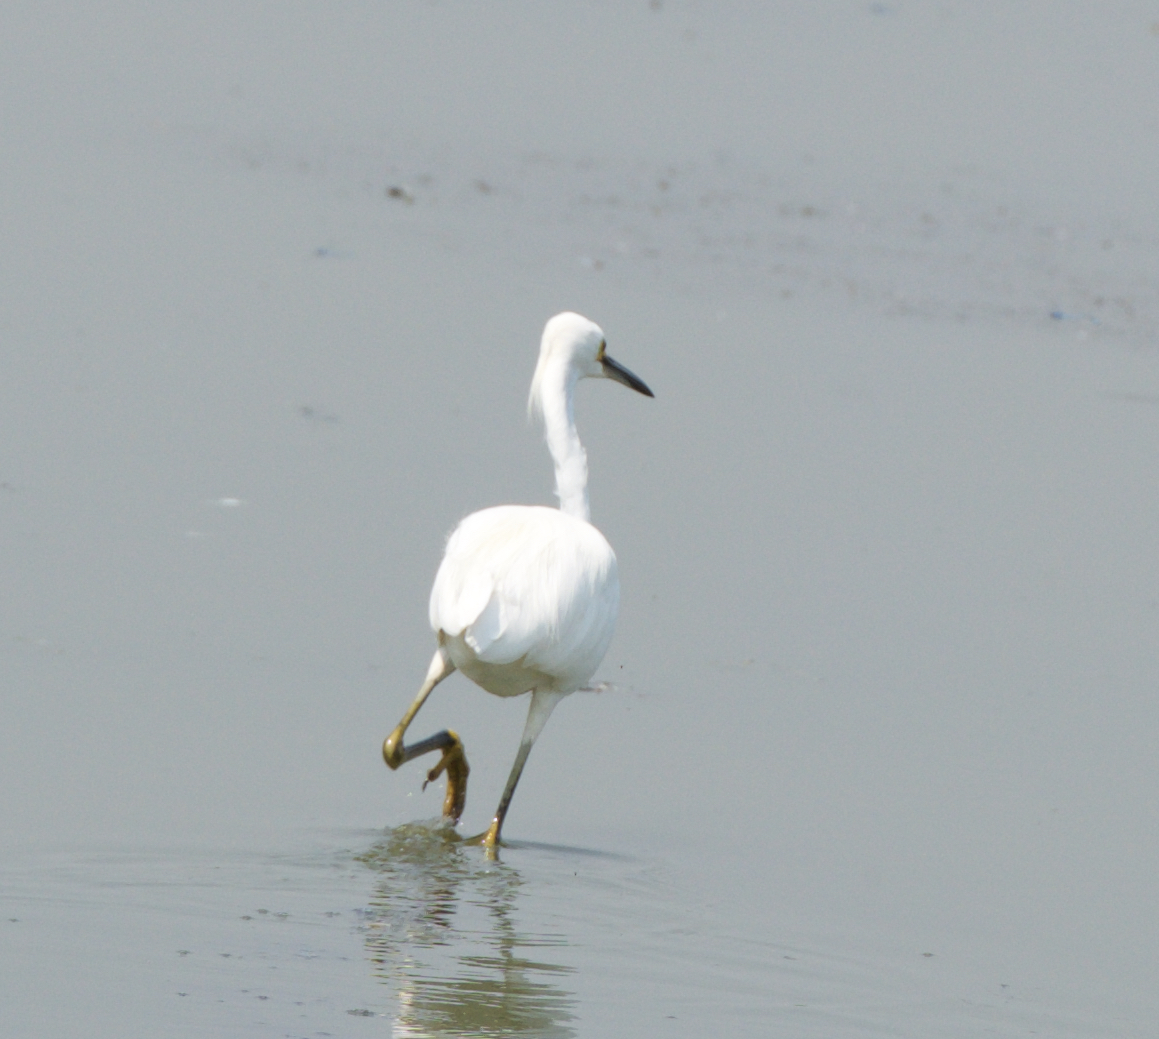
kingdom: Animalia
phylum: Chordata
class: Aves
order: Pelecaniformes
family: Ardeidae
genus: Egretta
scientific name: Egretta thula
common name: Snowy egret
